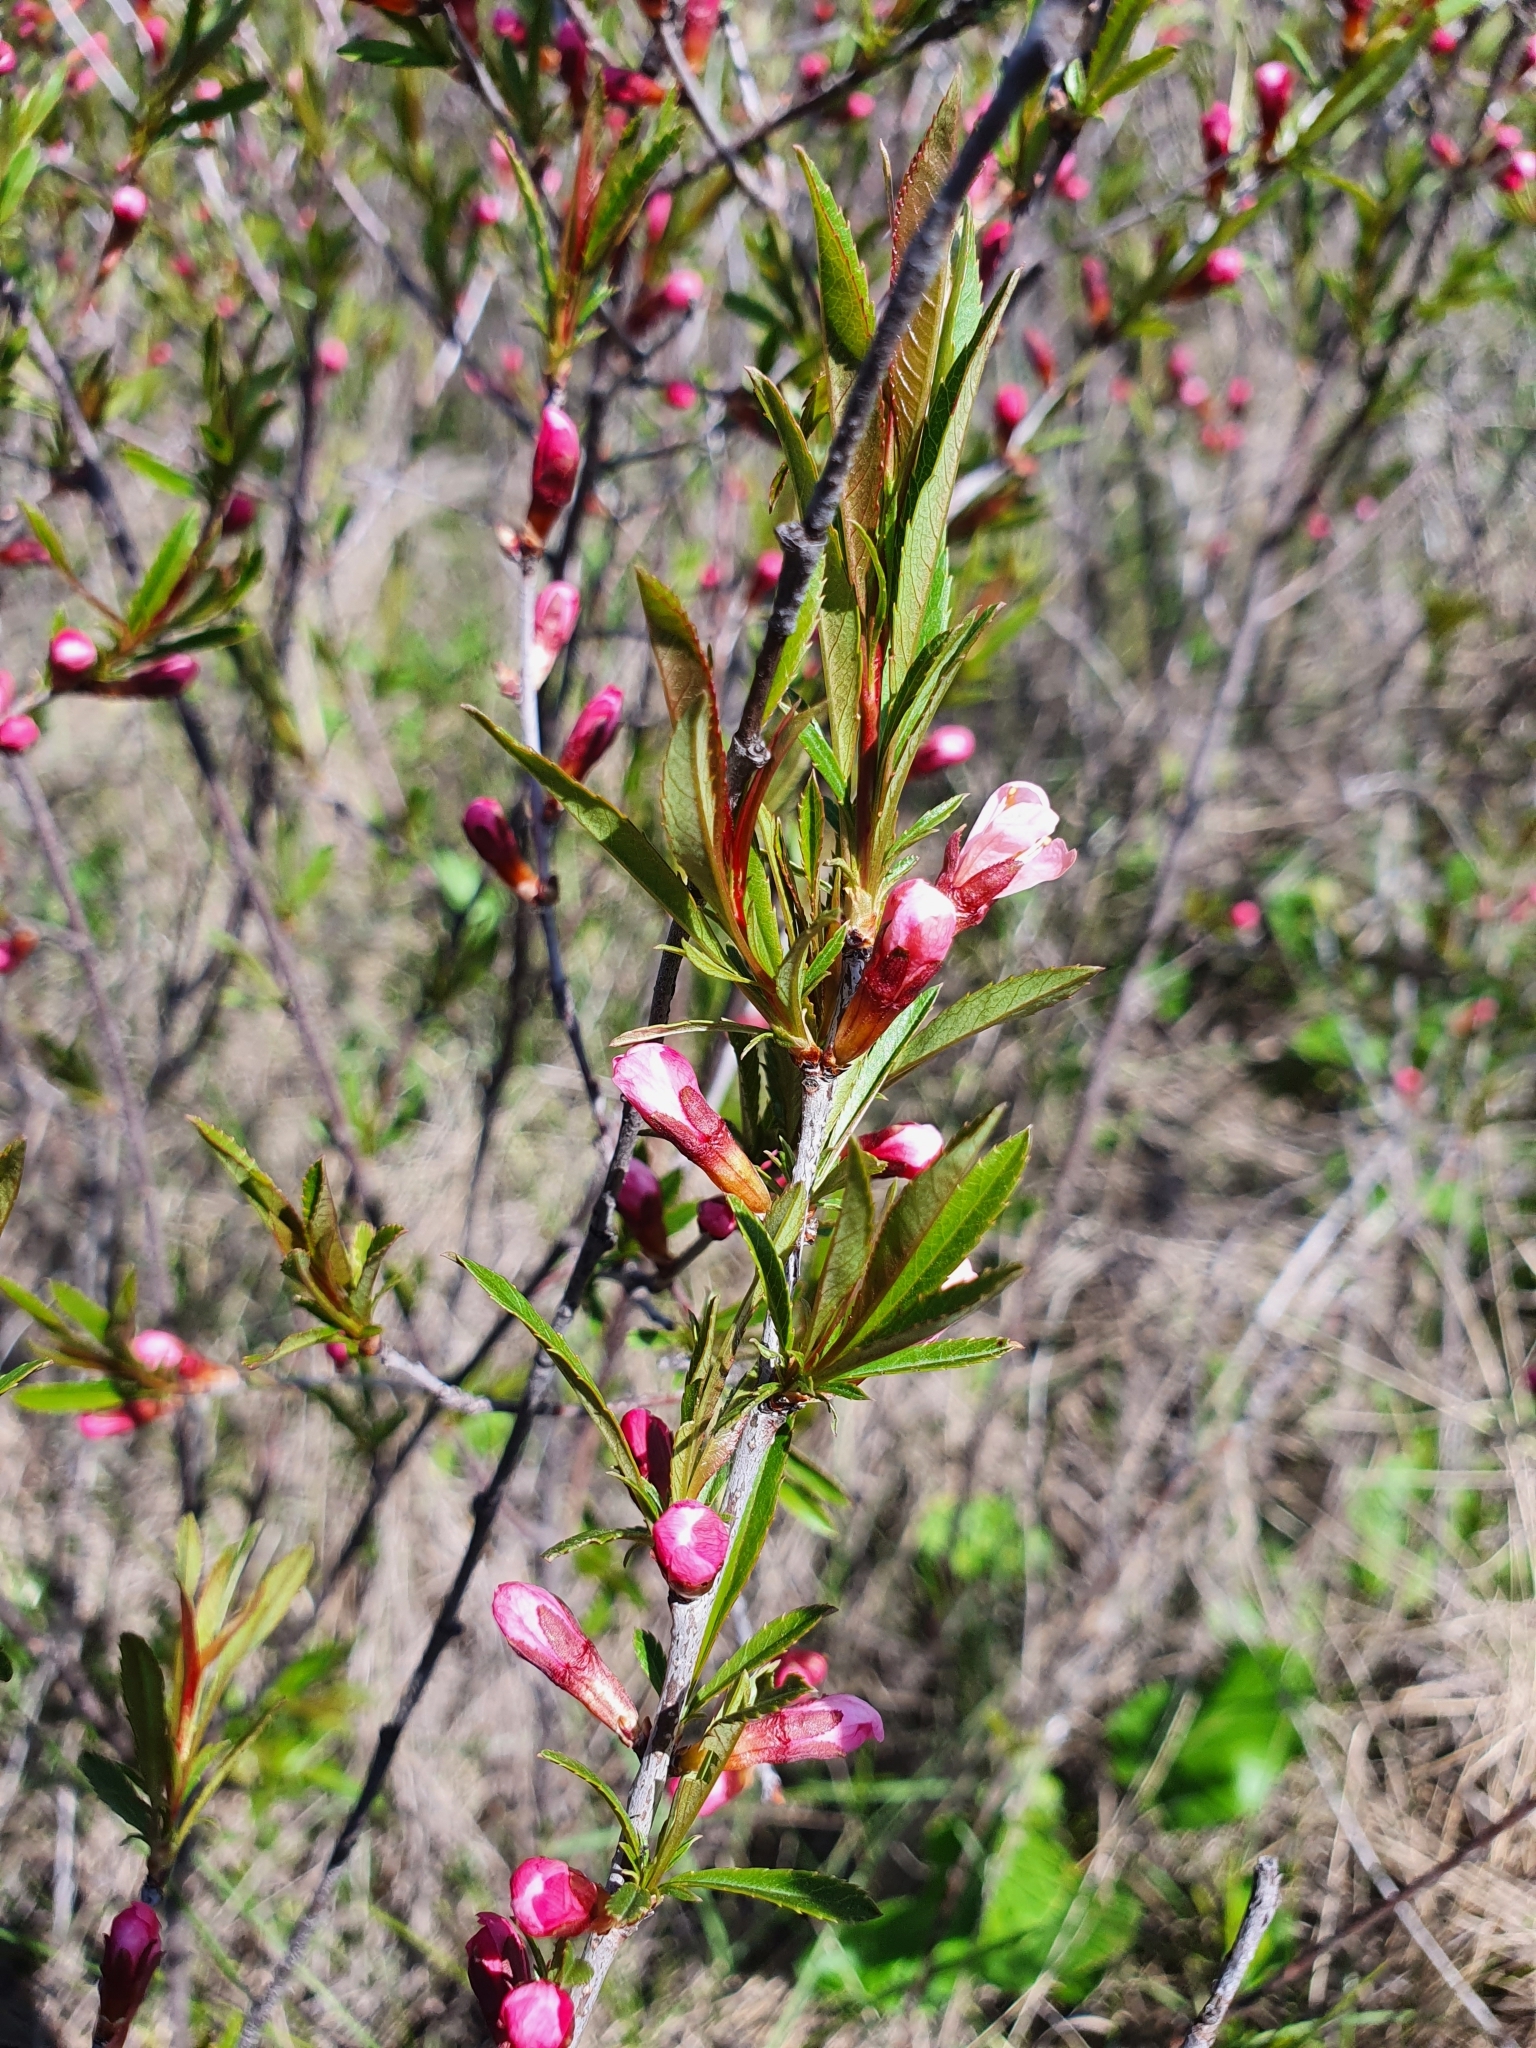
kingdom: Plantae
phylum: Tracheophyta
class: Magnoliopsida
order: Rosales
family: Rosaceae
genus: Prunus
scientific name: Prunus tenella
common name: Dwarf russian almond
